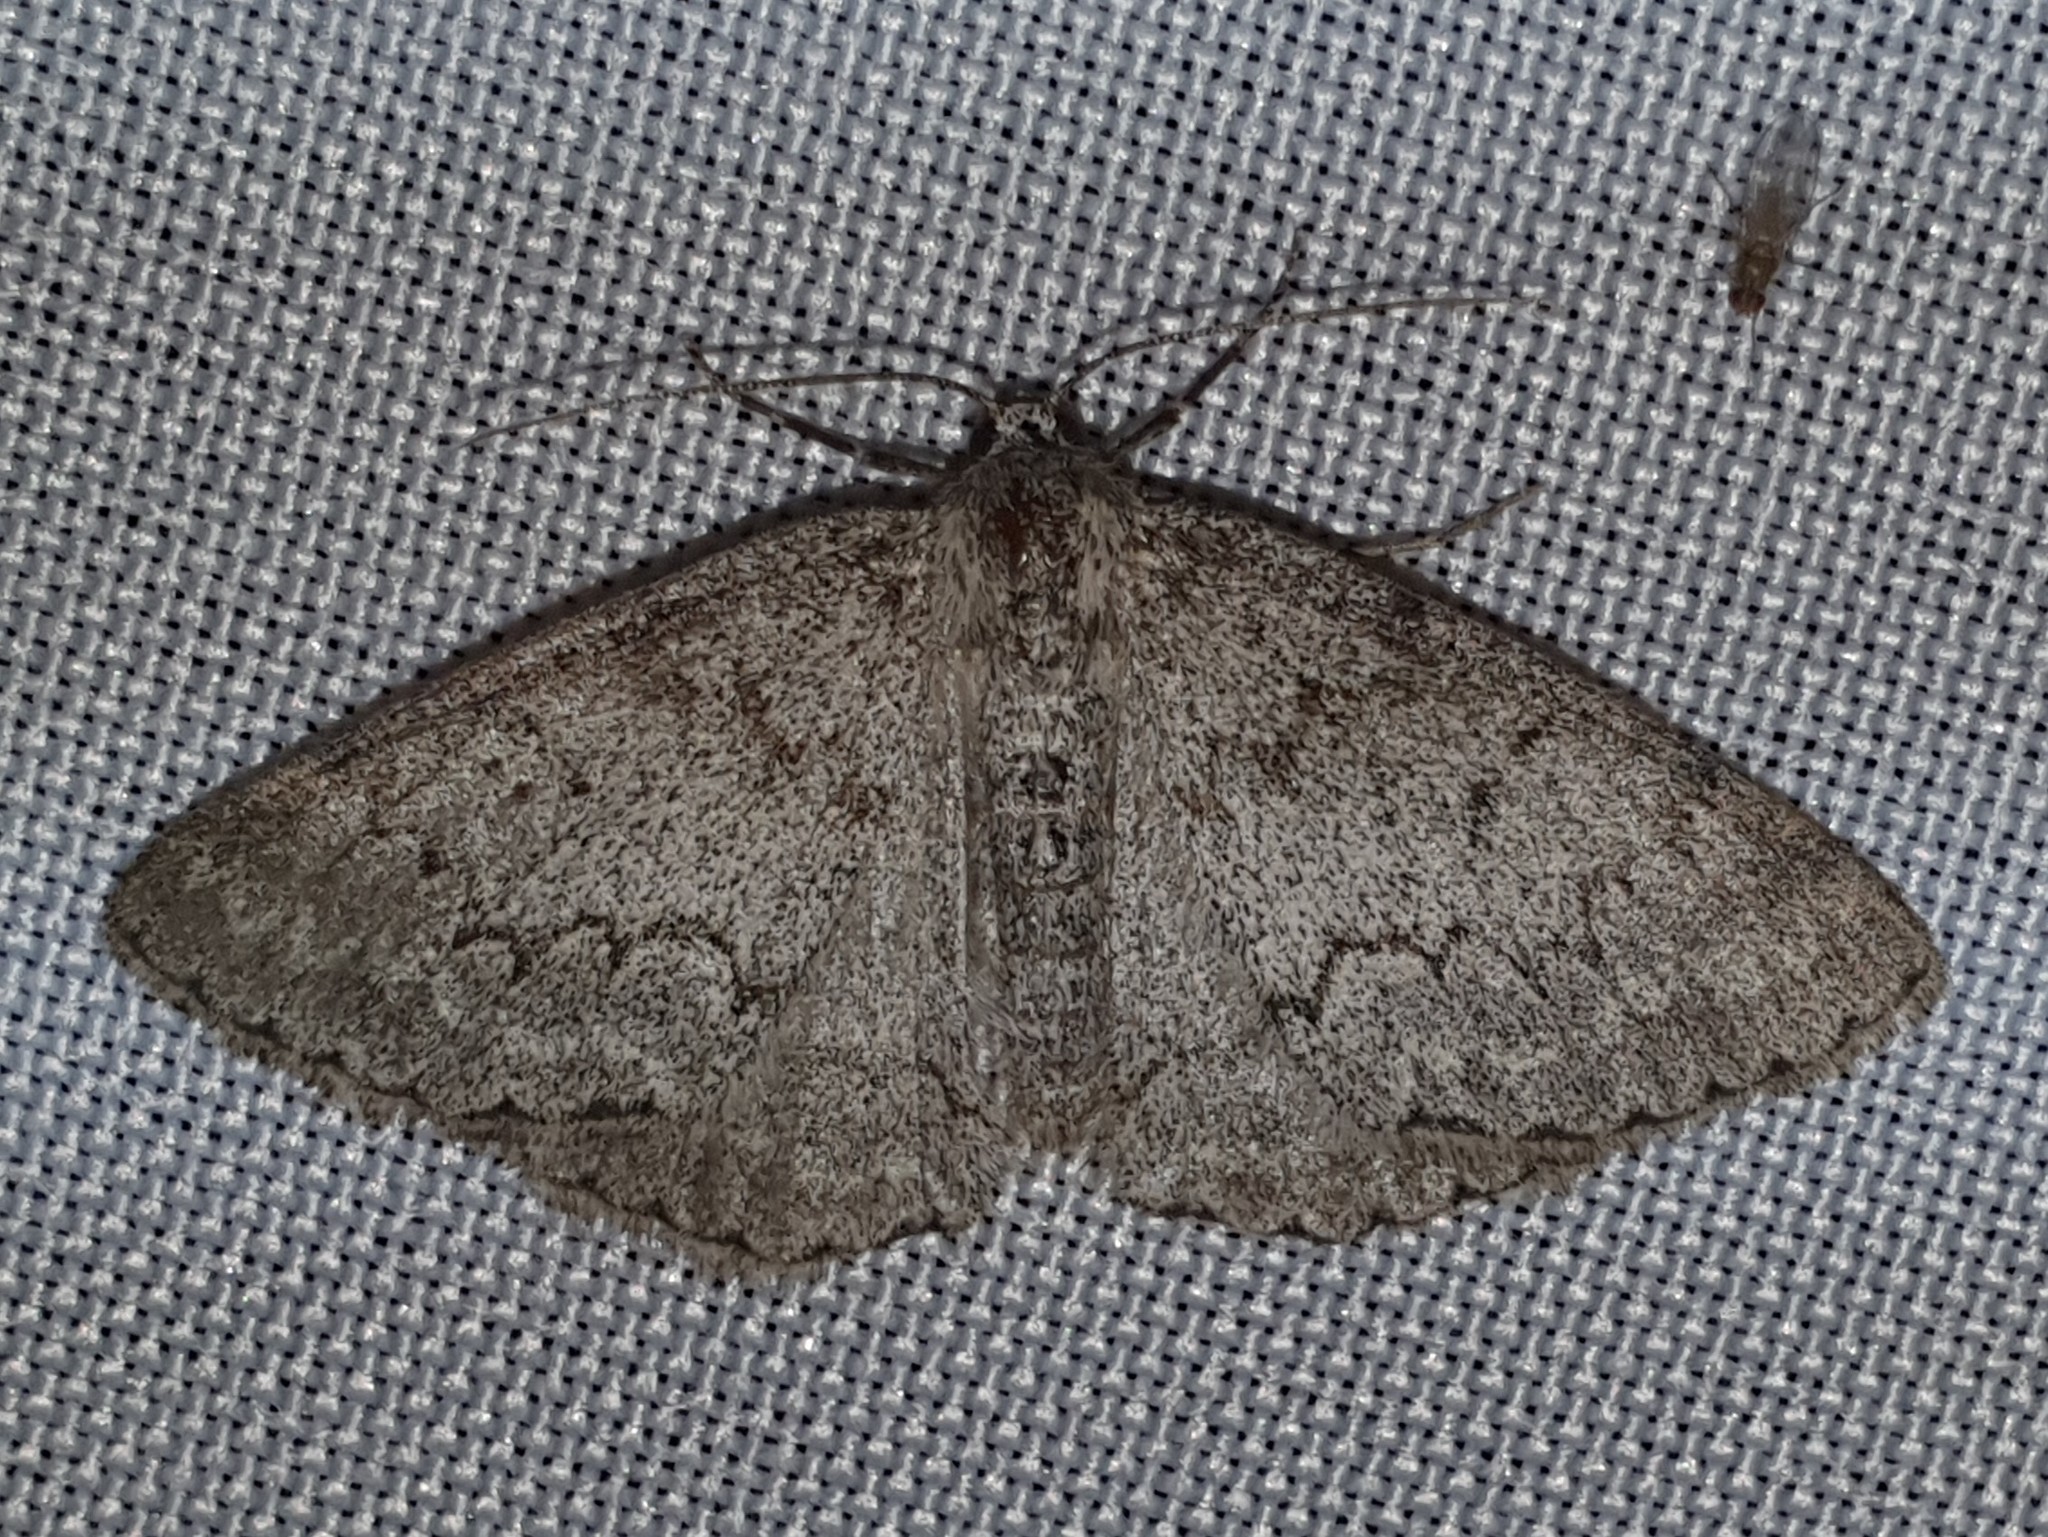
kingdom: Animalia
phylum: Arthropoda
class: Insecta
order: Lepidoptera
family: Geometridae
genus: Pseudoterpna
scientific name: Pseudoterpna coronillaria
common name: Jersey emerald
